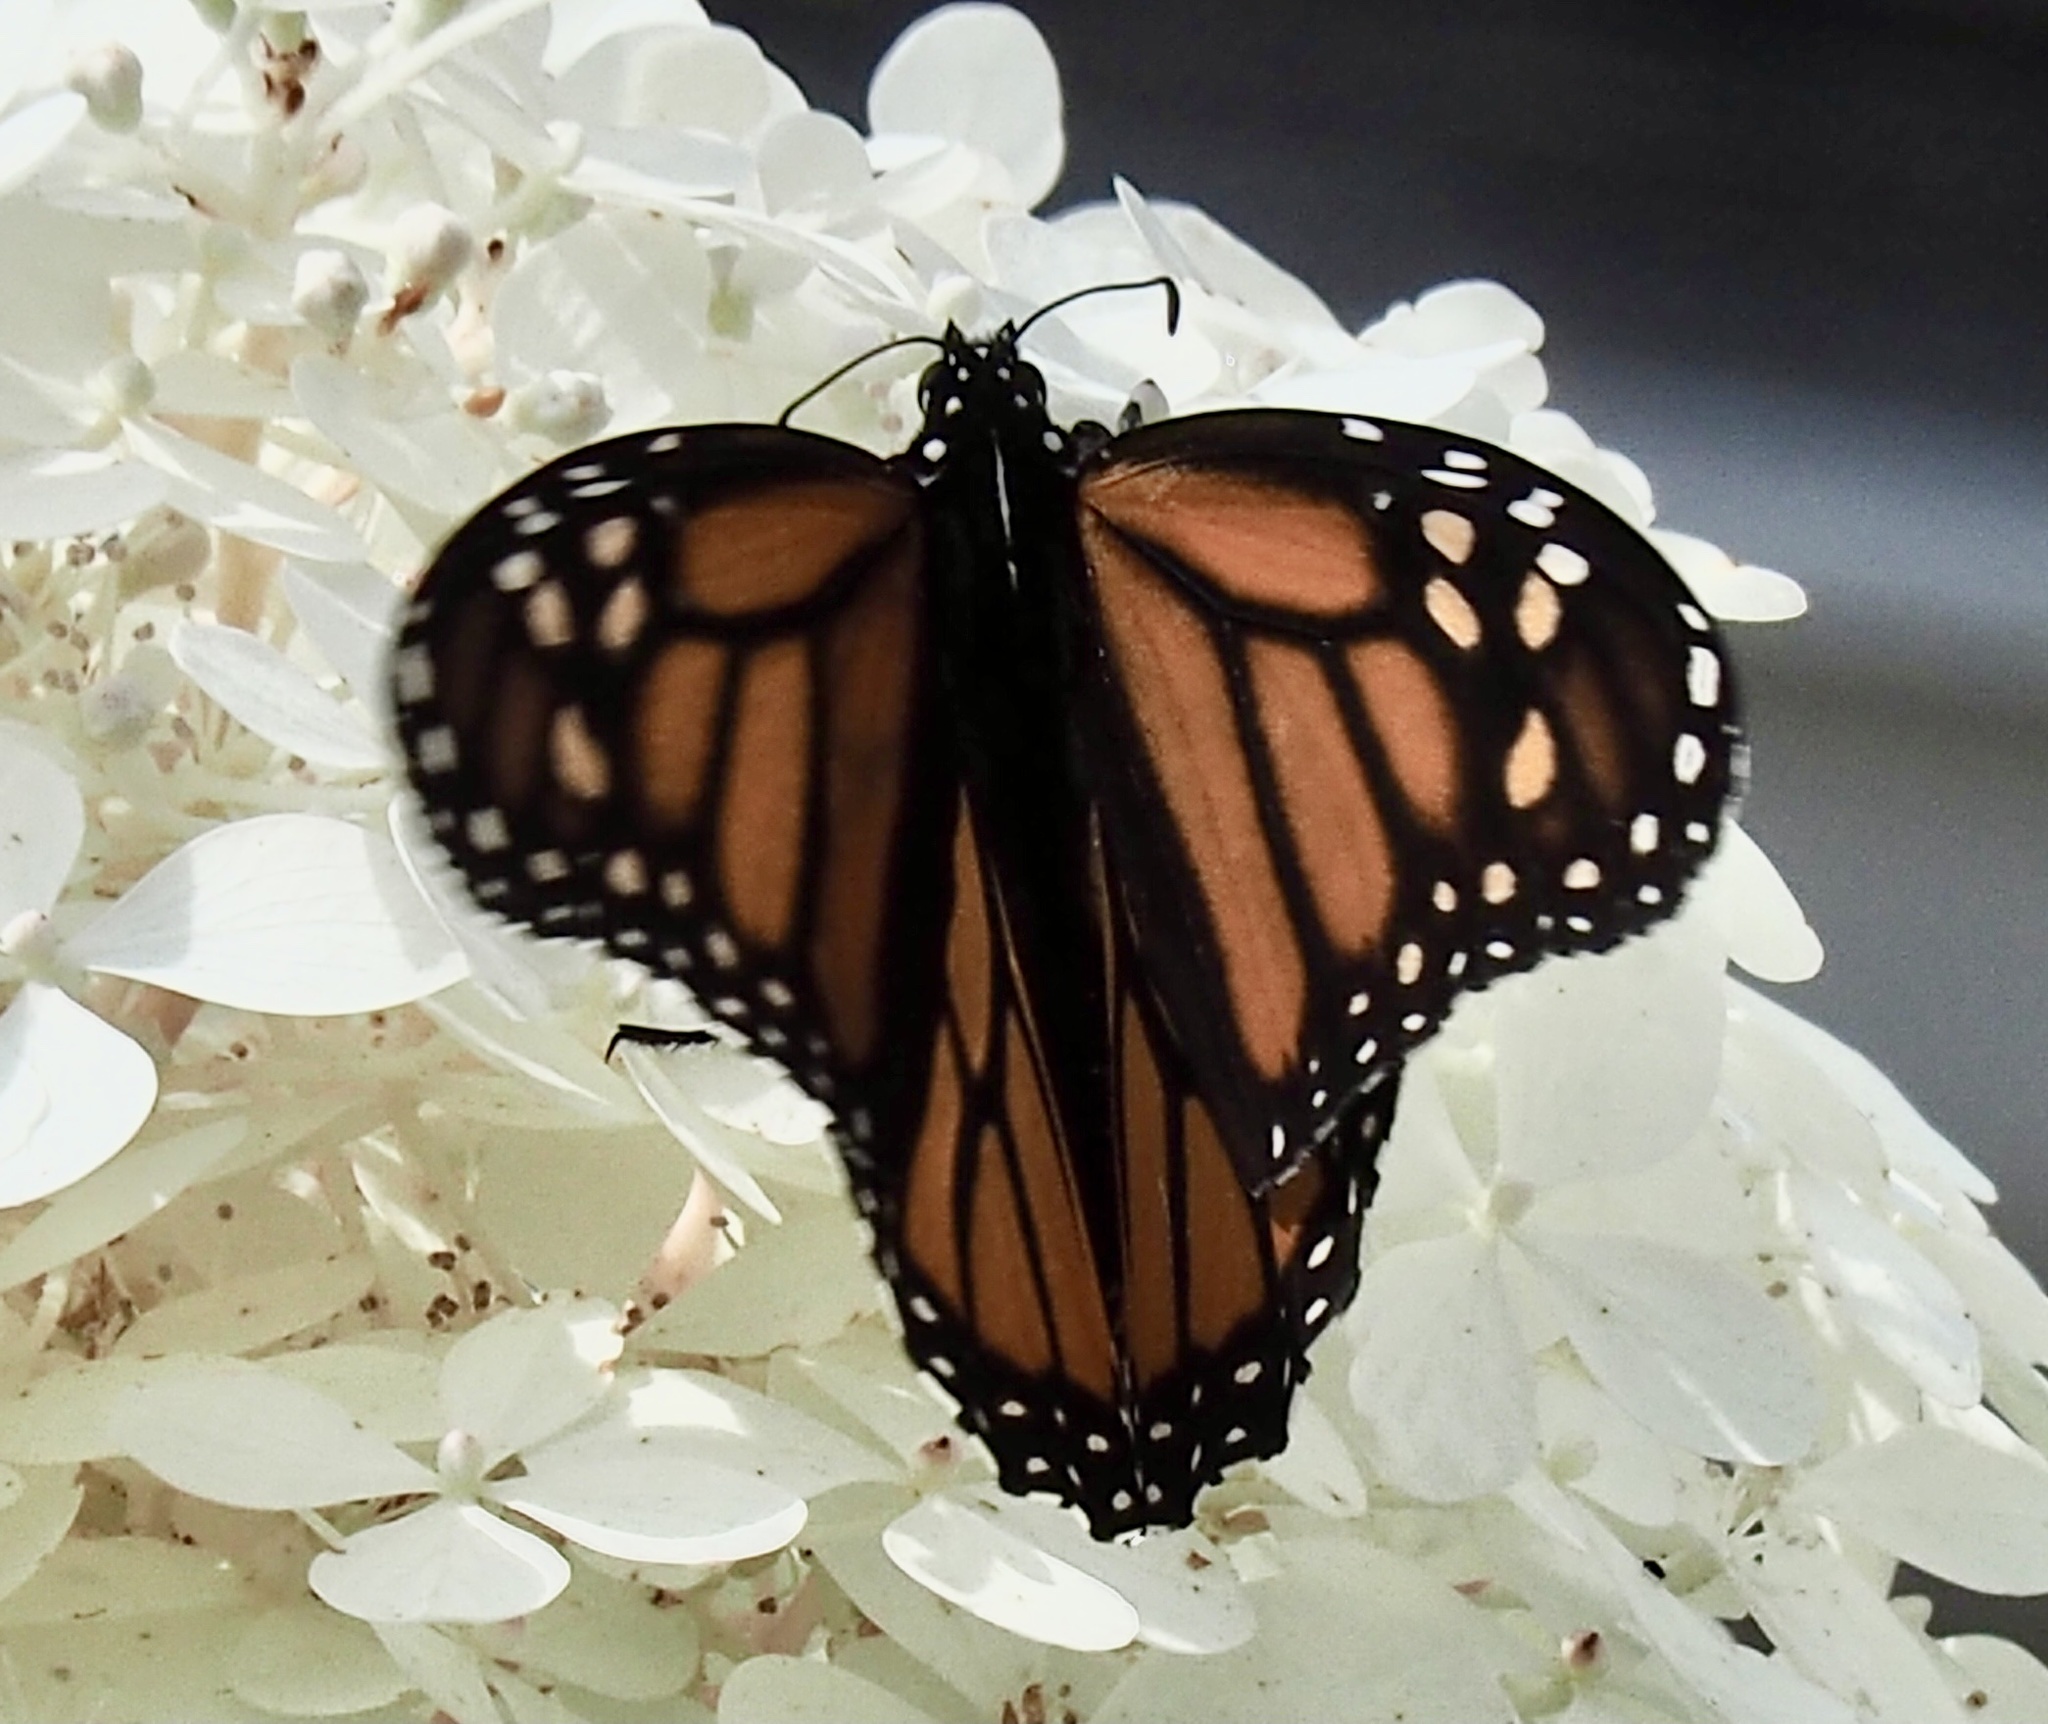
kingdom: Animalia
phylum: Arthropoda
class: Insecta
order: Lepidoptera
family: Nymphalidae
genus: Danaus
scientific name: Danaus plexippus
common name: Monarch
